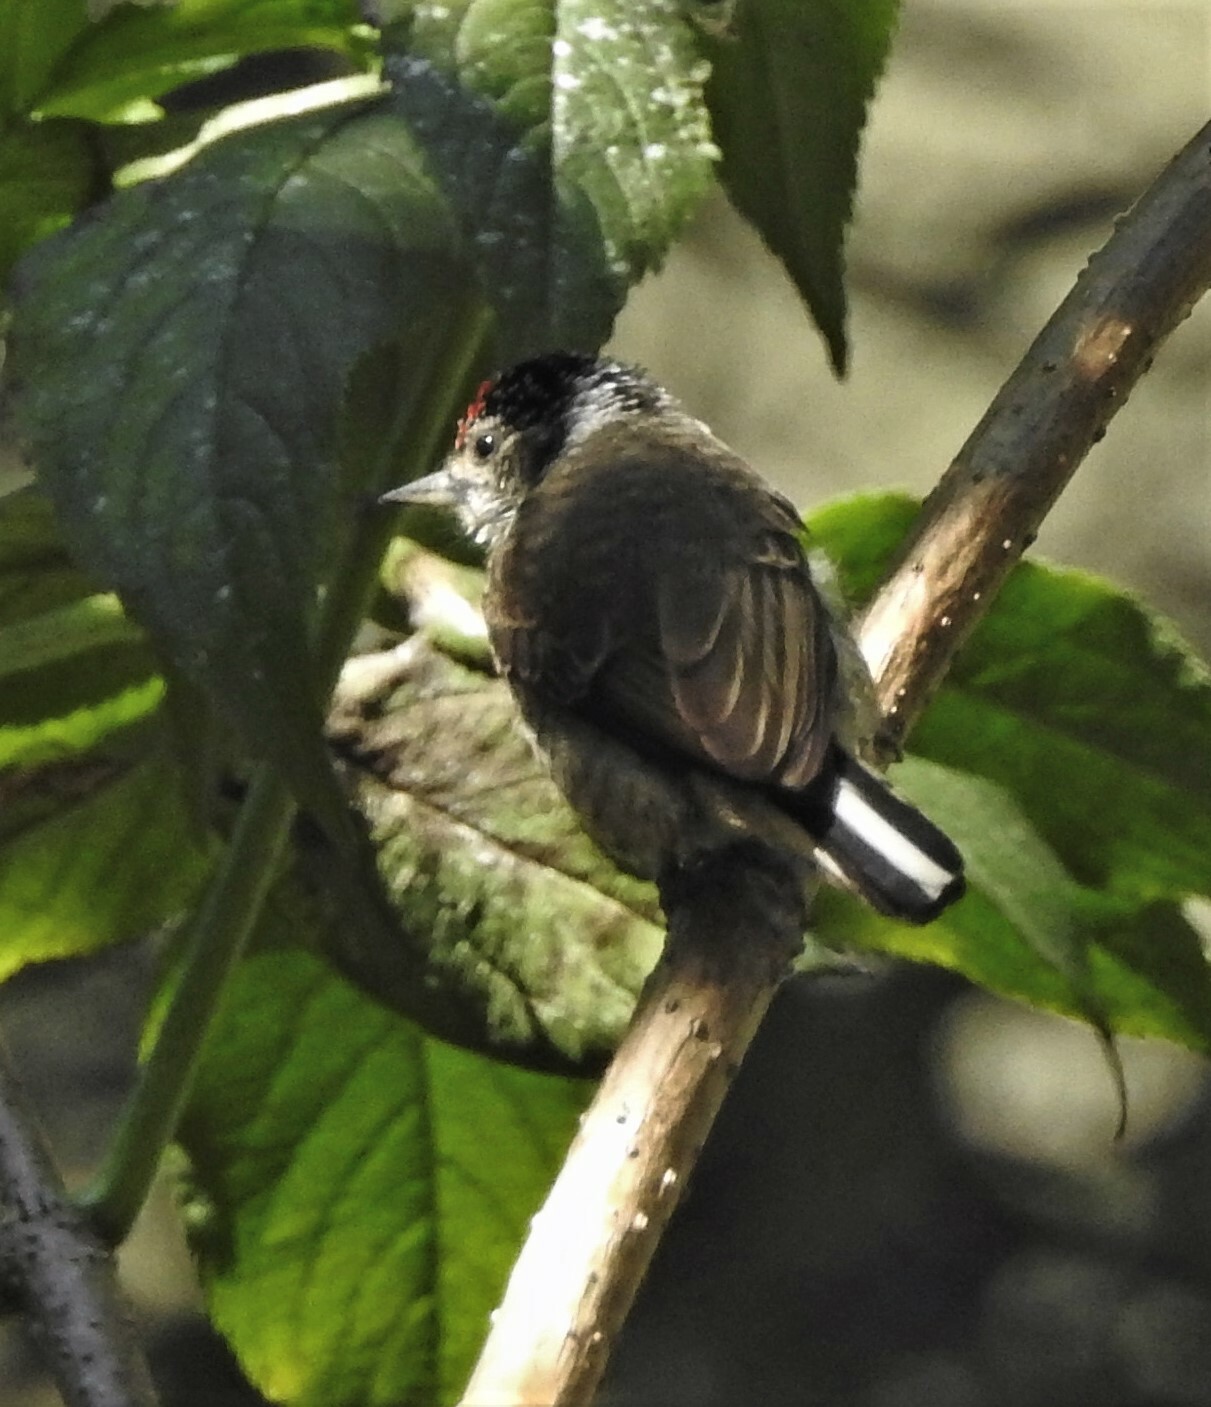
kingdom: Animalia
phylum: Chordata
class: Aves
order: Piciformes
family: Picidae
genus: Picumnus
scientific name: Picumnus cirratus
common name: White-barred piculet
